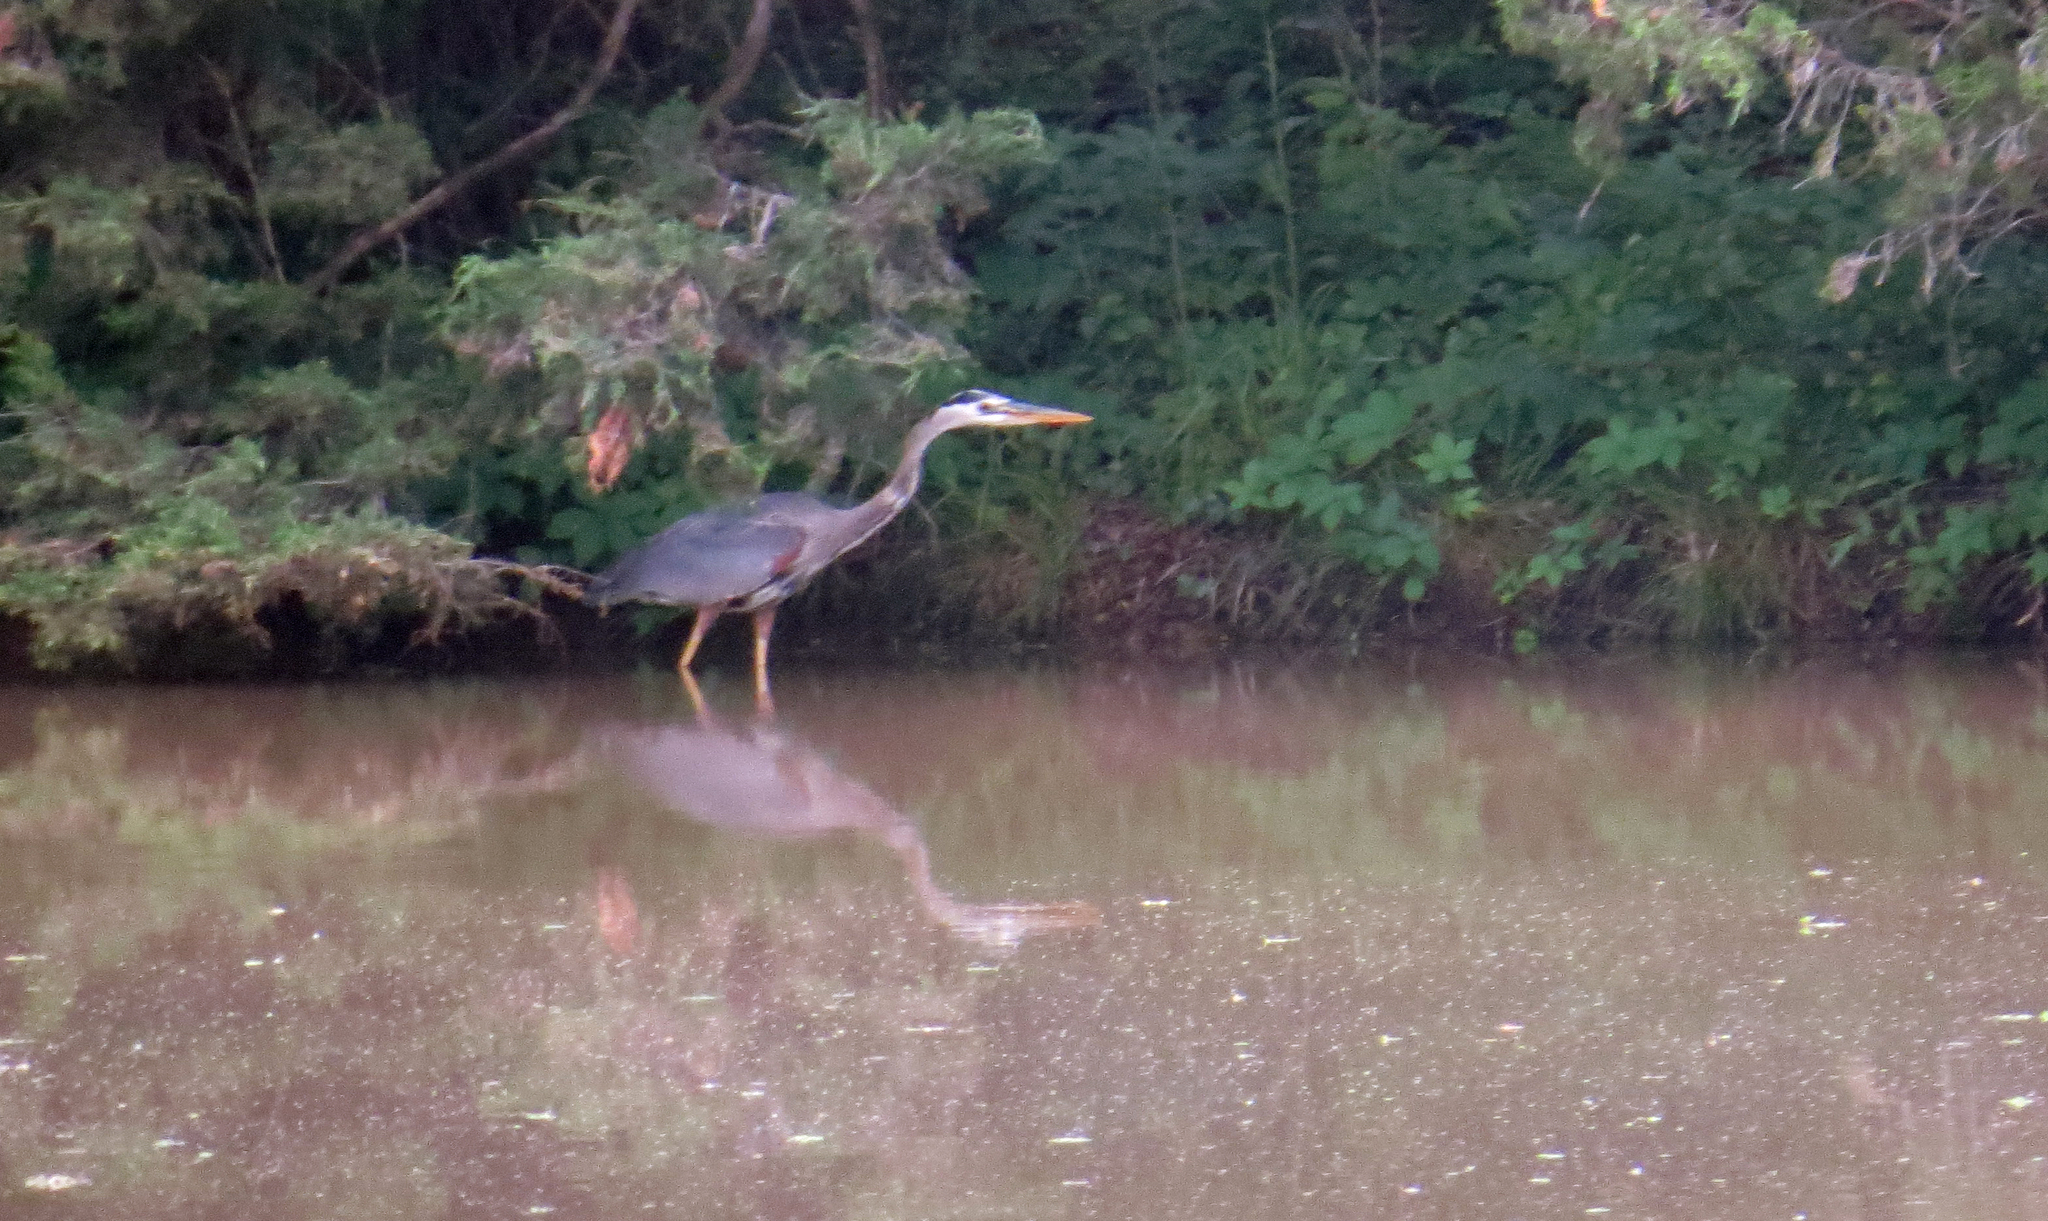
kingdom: Animalia
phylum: Chordata
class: Aves
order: Pelecaniformes
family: Ardeidae
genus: Ardea
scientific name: Ardea herodias
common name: Great blue heron
